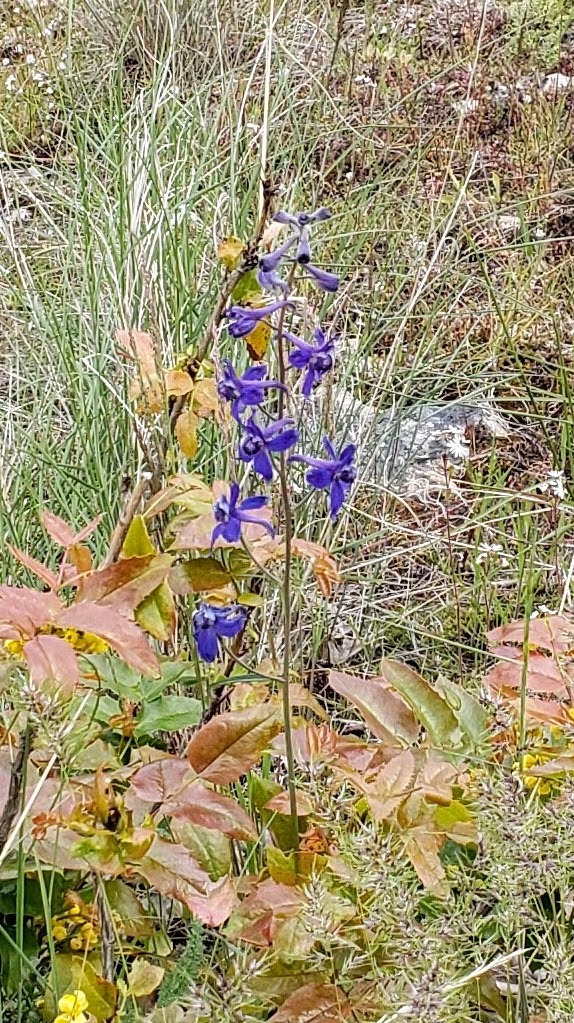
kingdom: Plantae
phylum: Tracheophyta
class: Magnoliopsida
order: Ranunculales
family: Ranunculaceae
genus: Delphinium
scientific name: Delphinium nuttallianum
